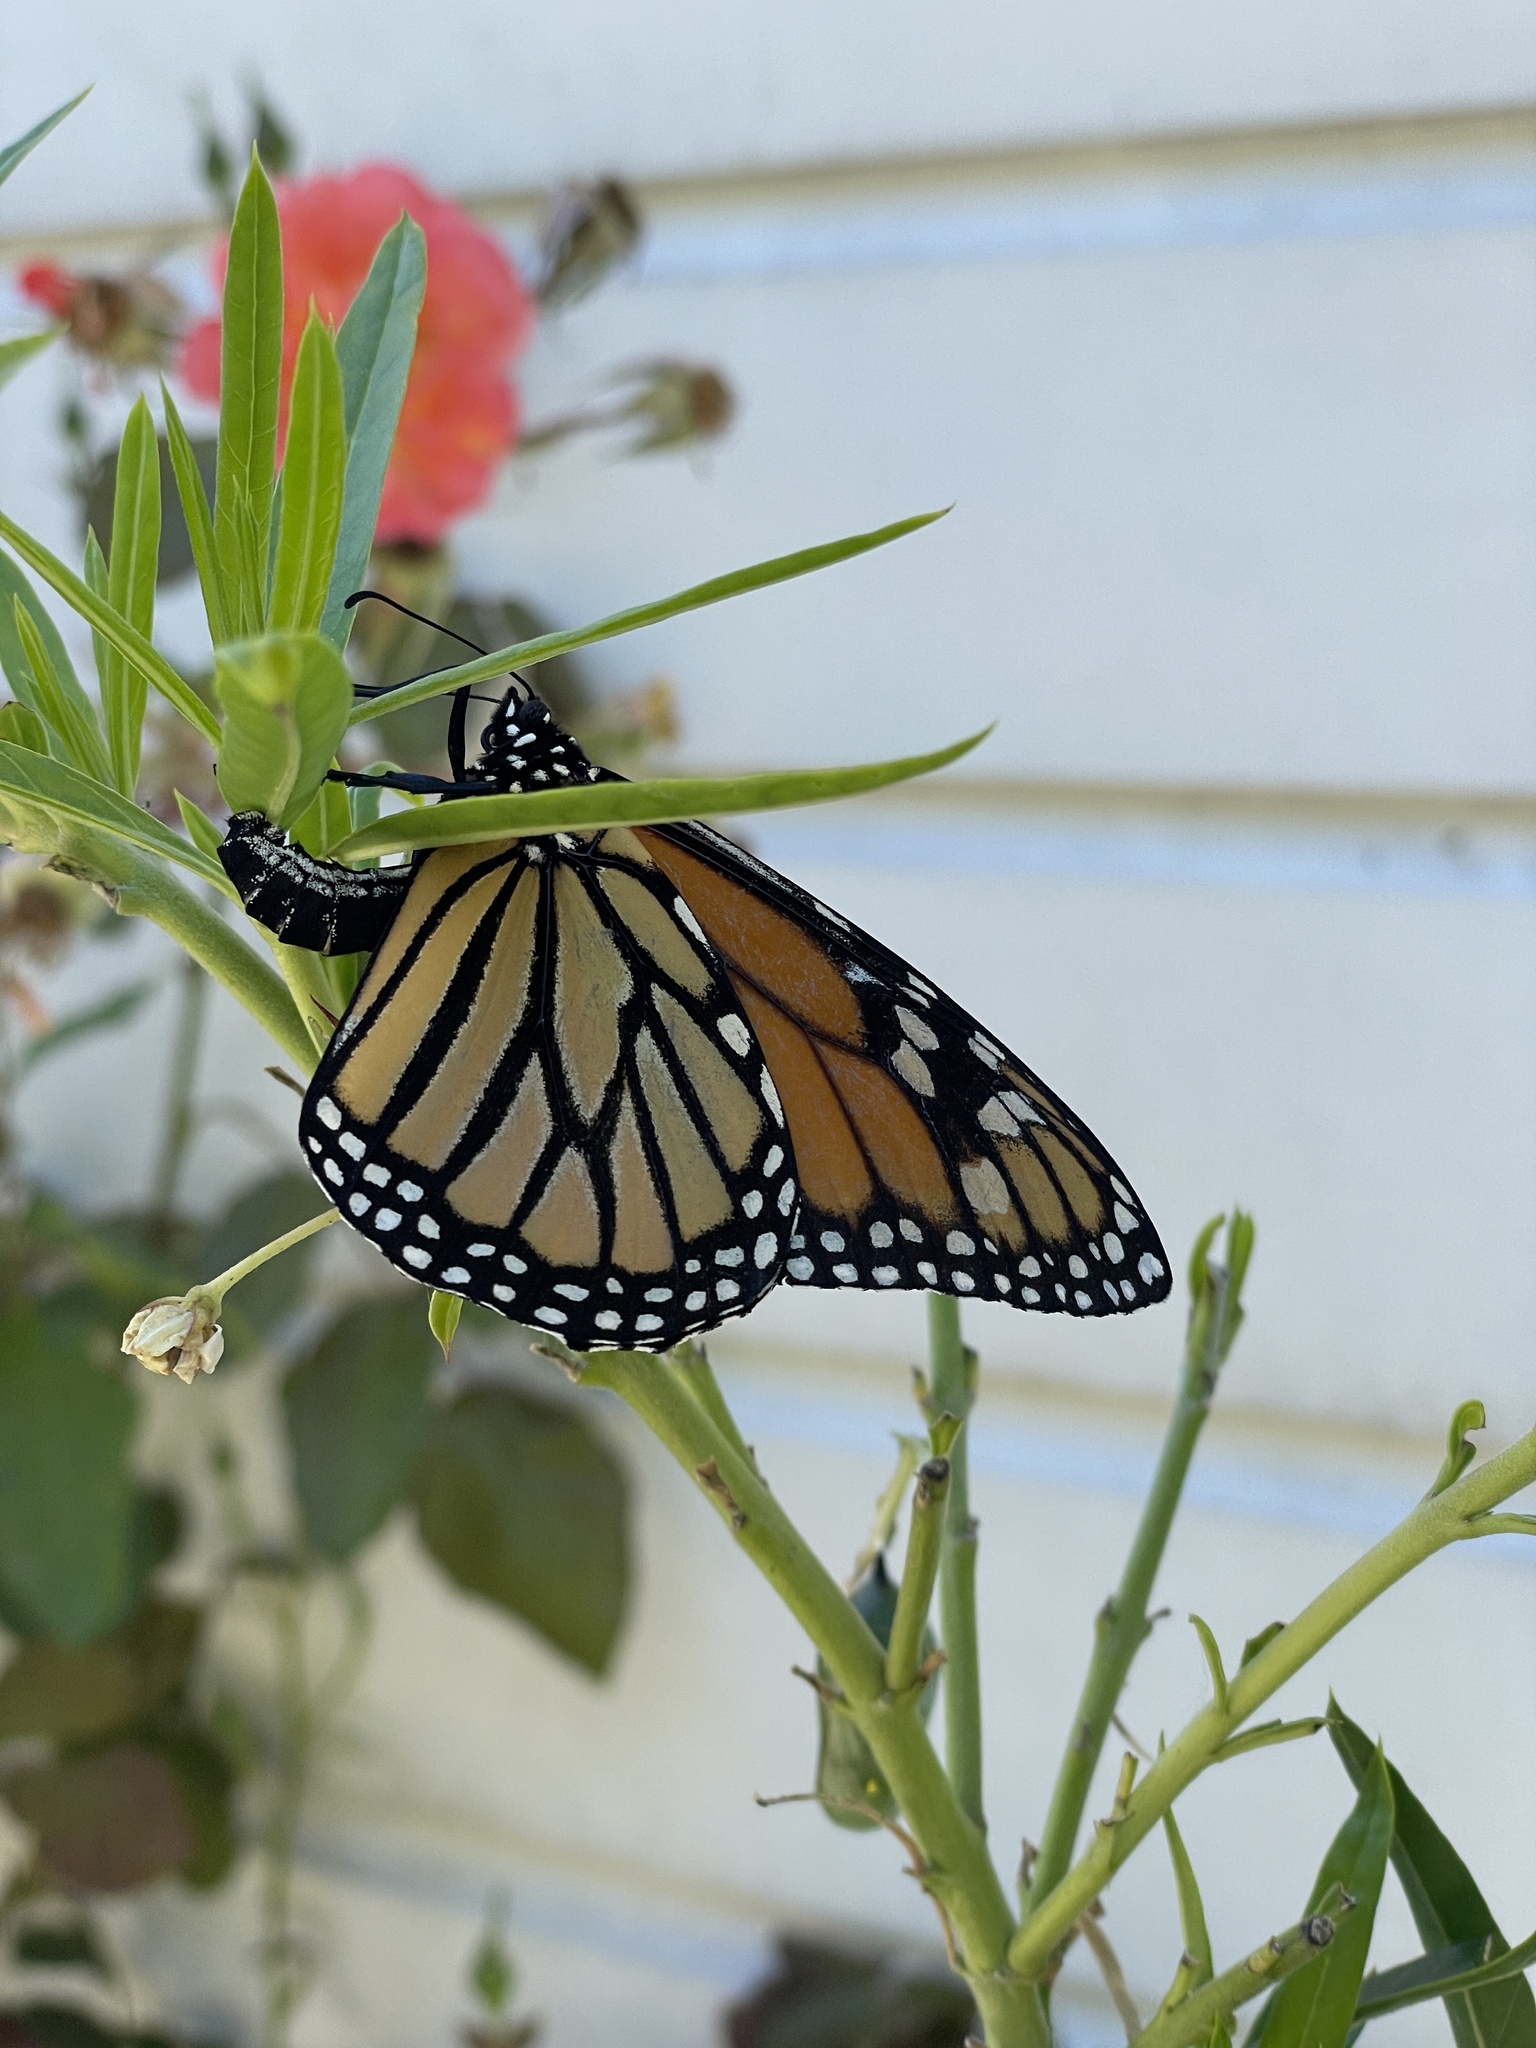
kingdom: Animalia
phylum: Arthropoda
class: Insecta
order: Lepidoptera
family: Nymphalidae
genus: Danaus
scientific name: Danaus plexippus
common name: Monarch
